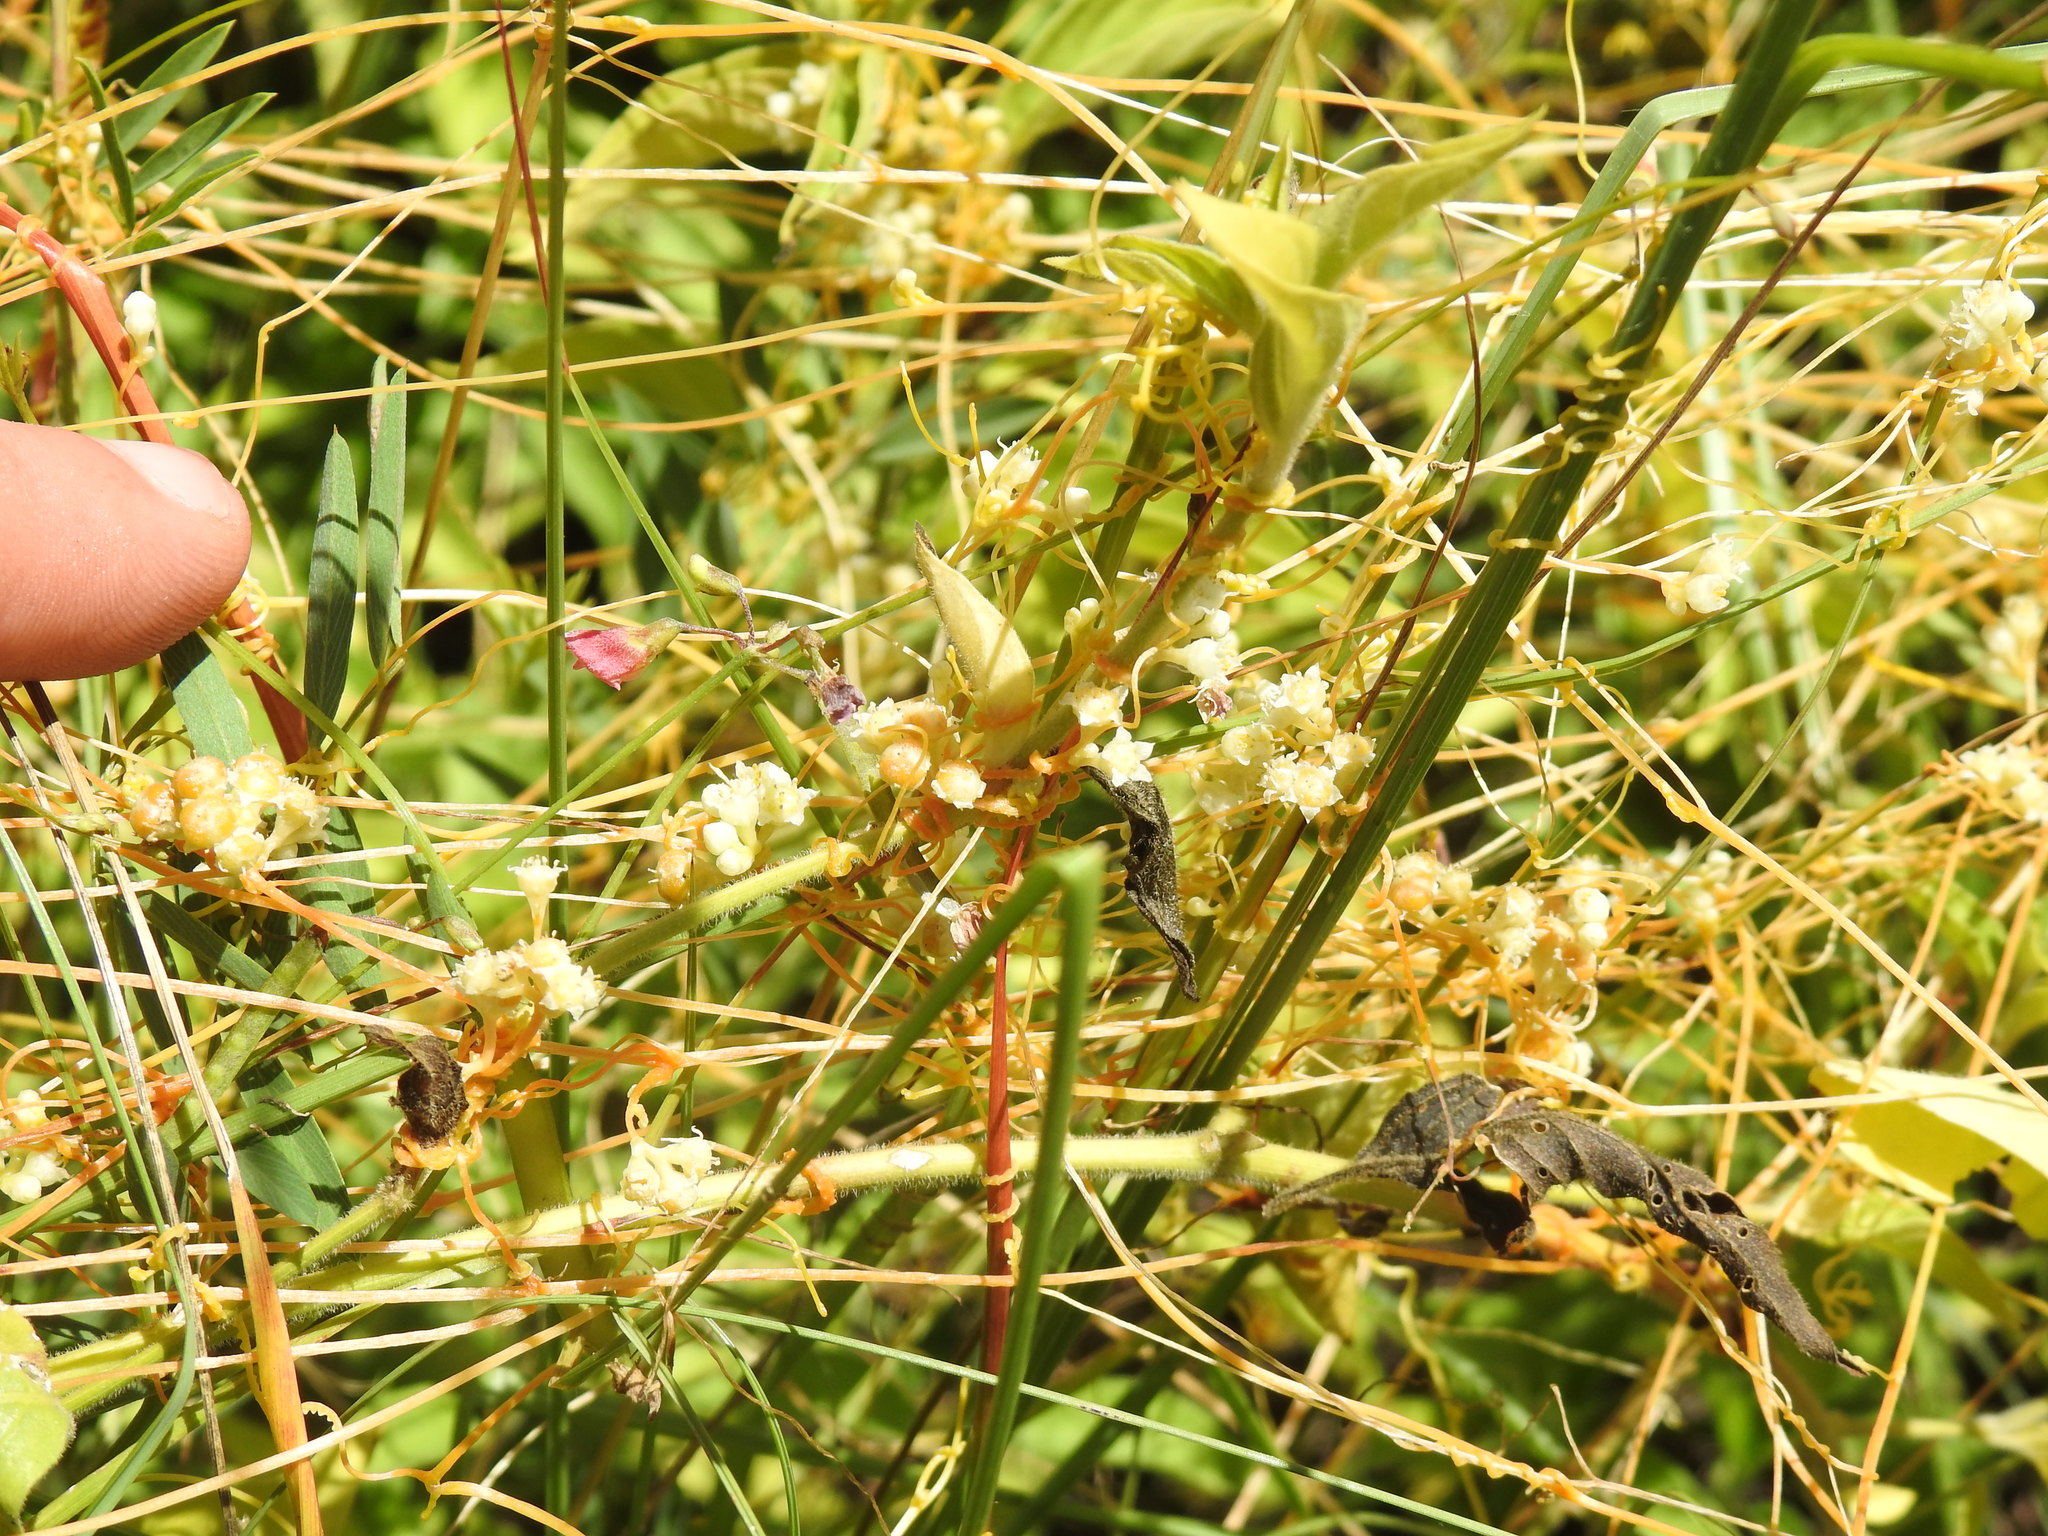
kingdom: Plantae
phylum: Tracheophyta
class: Magnoliopsida
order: Solanales
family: Convolvulaceae
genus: Cuscuta
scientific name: Cuscuta campestris
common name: Yellow dodder
